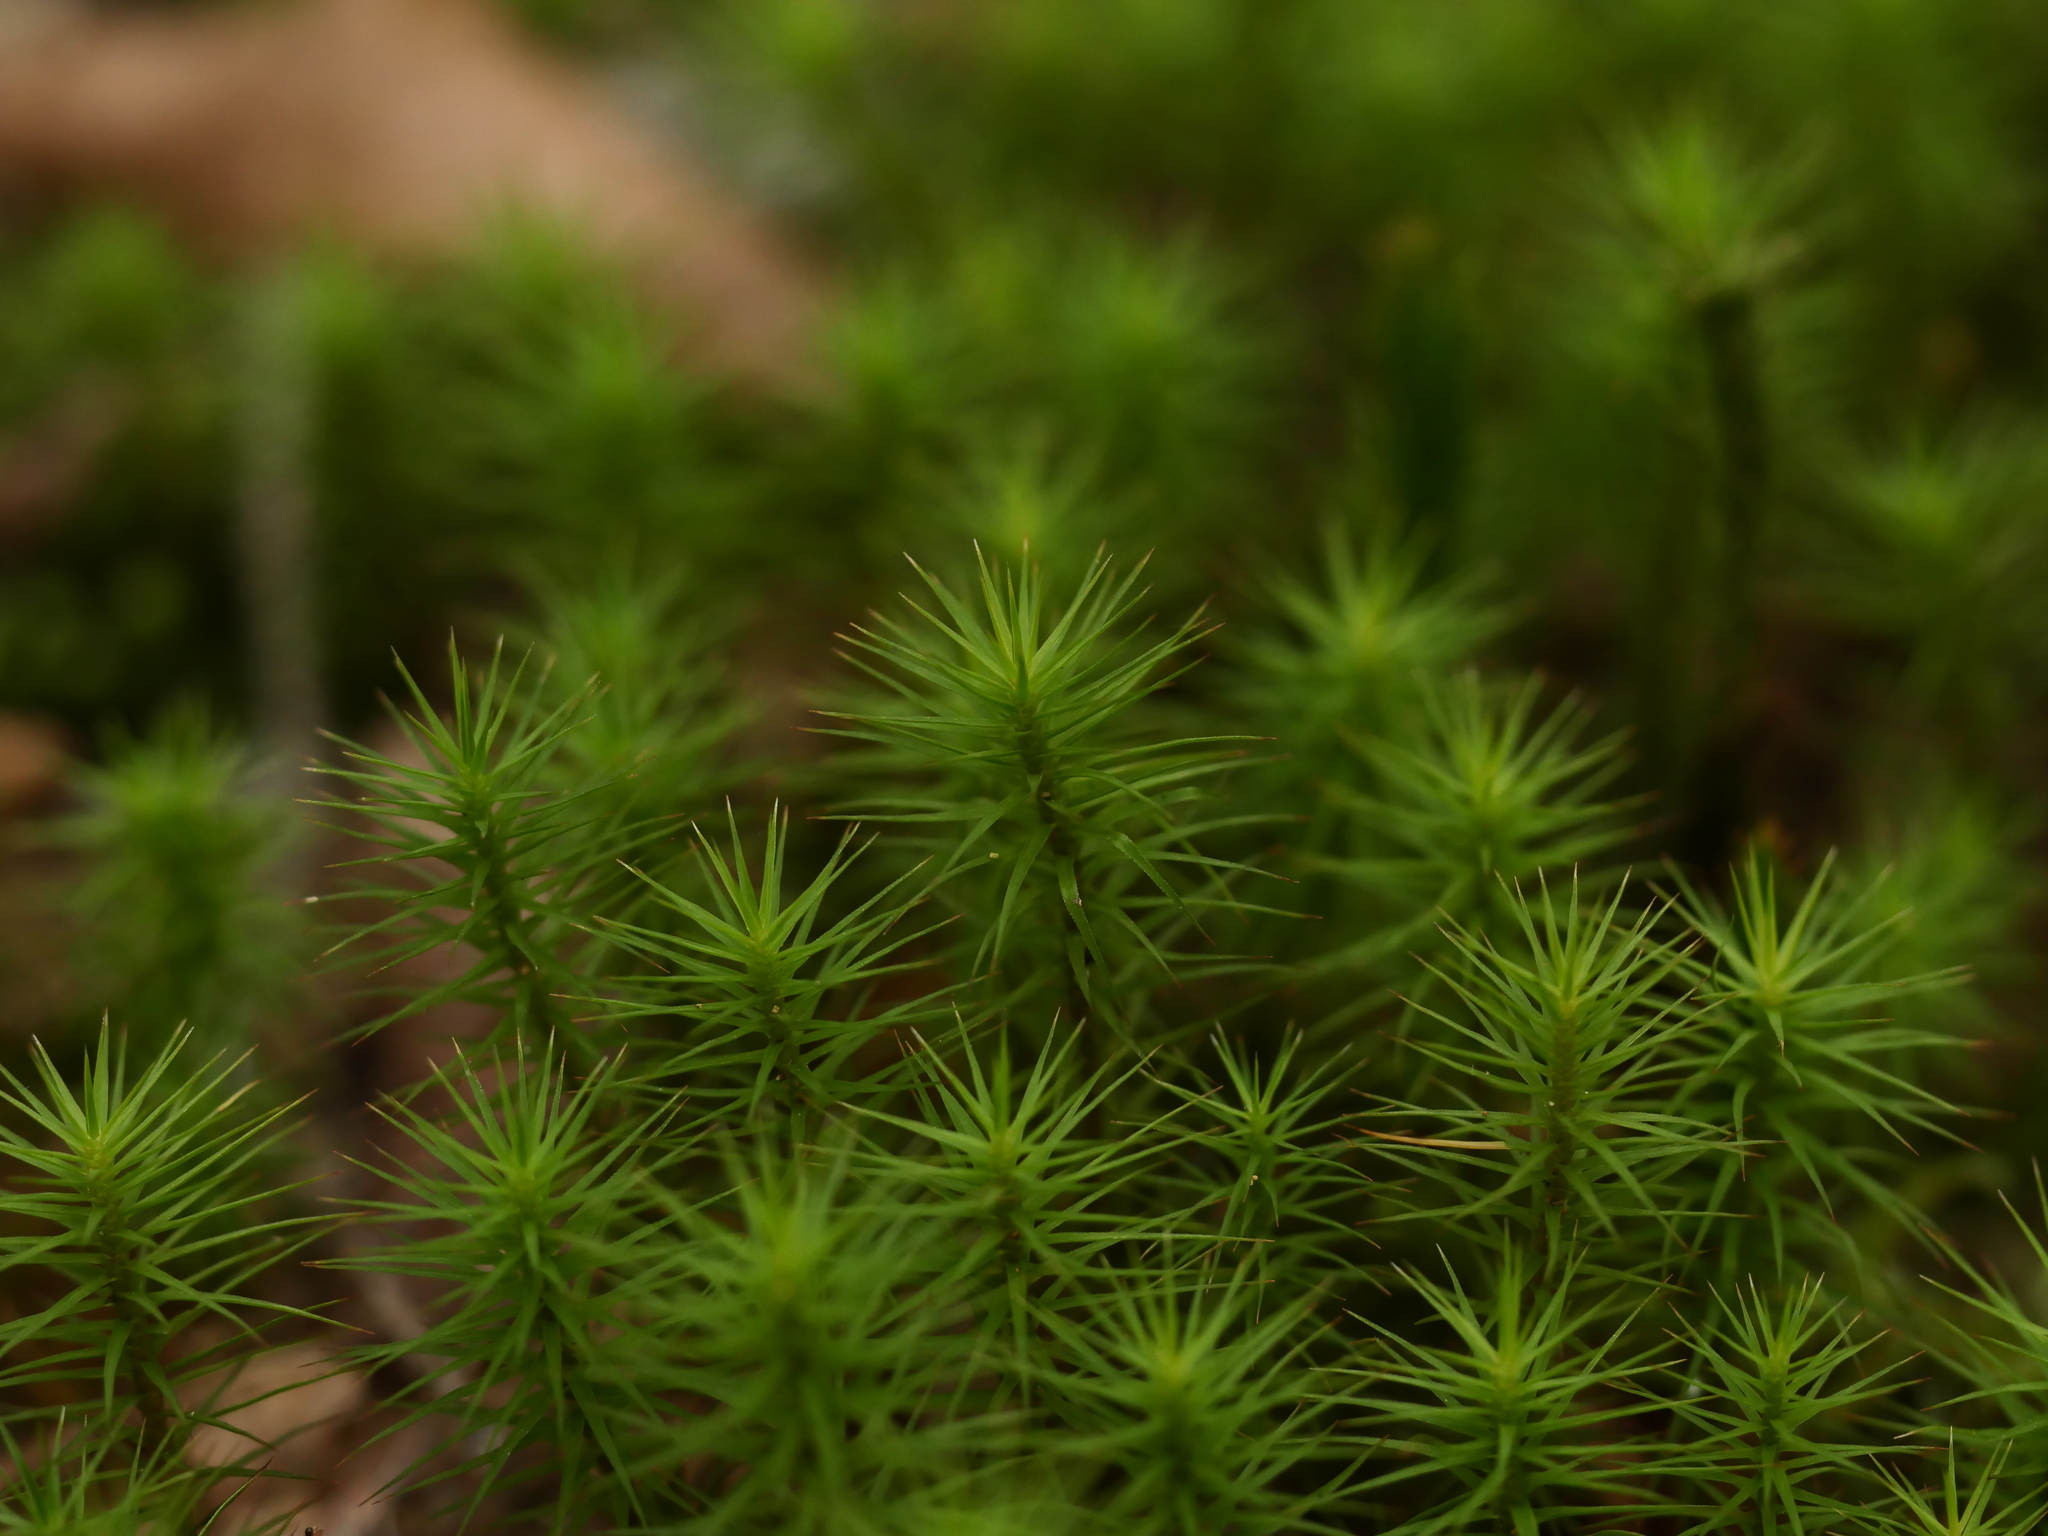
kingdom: Plantae
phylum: Bryophyta
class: Polytrichopsida
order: Polytrichales
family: Polytrichaceae
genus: Polytrichum
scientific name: Polytrichum commune
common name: Common haircap
